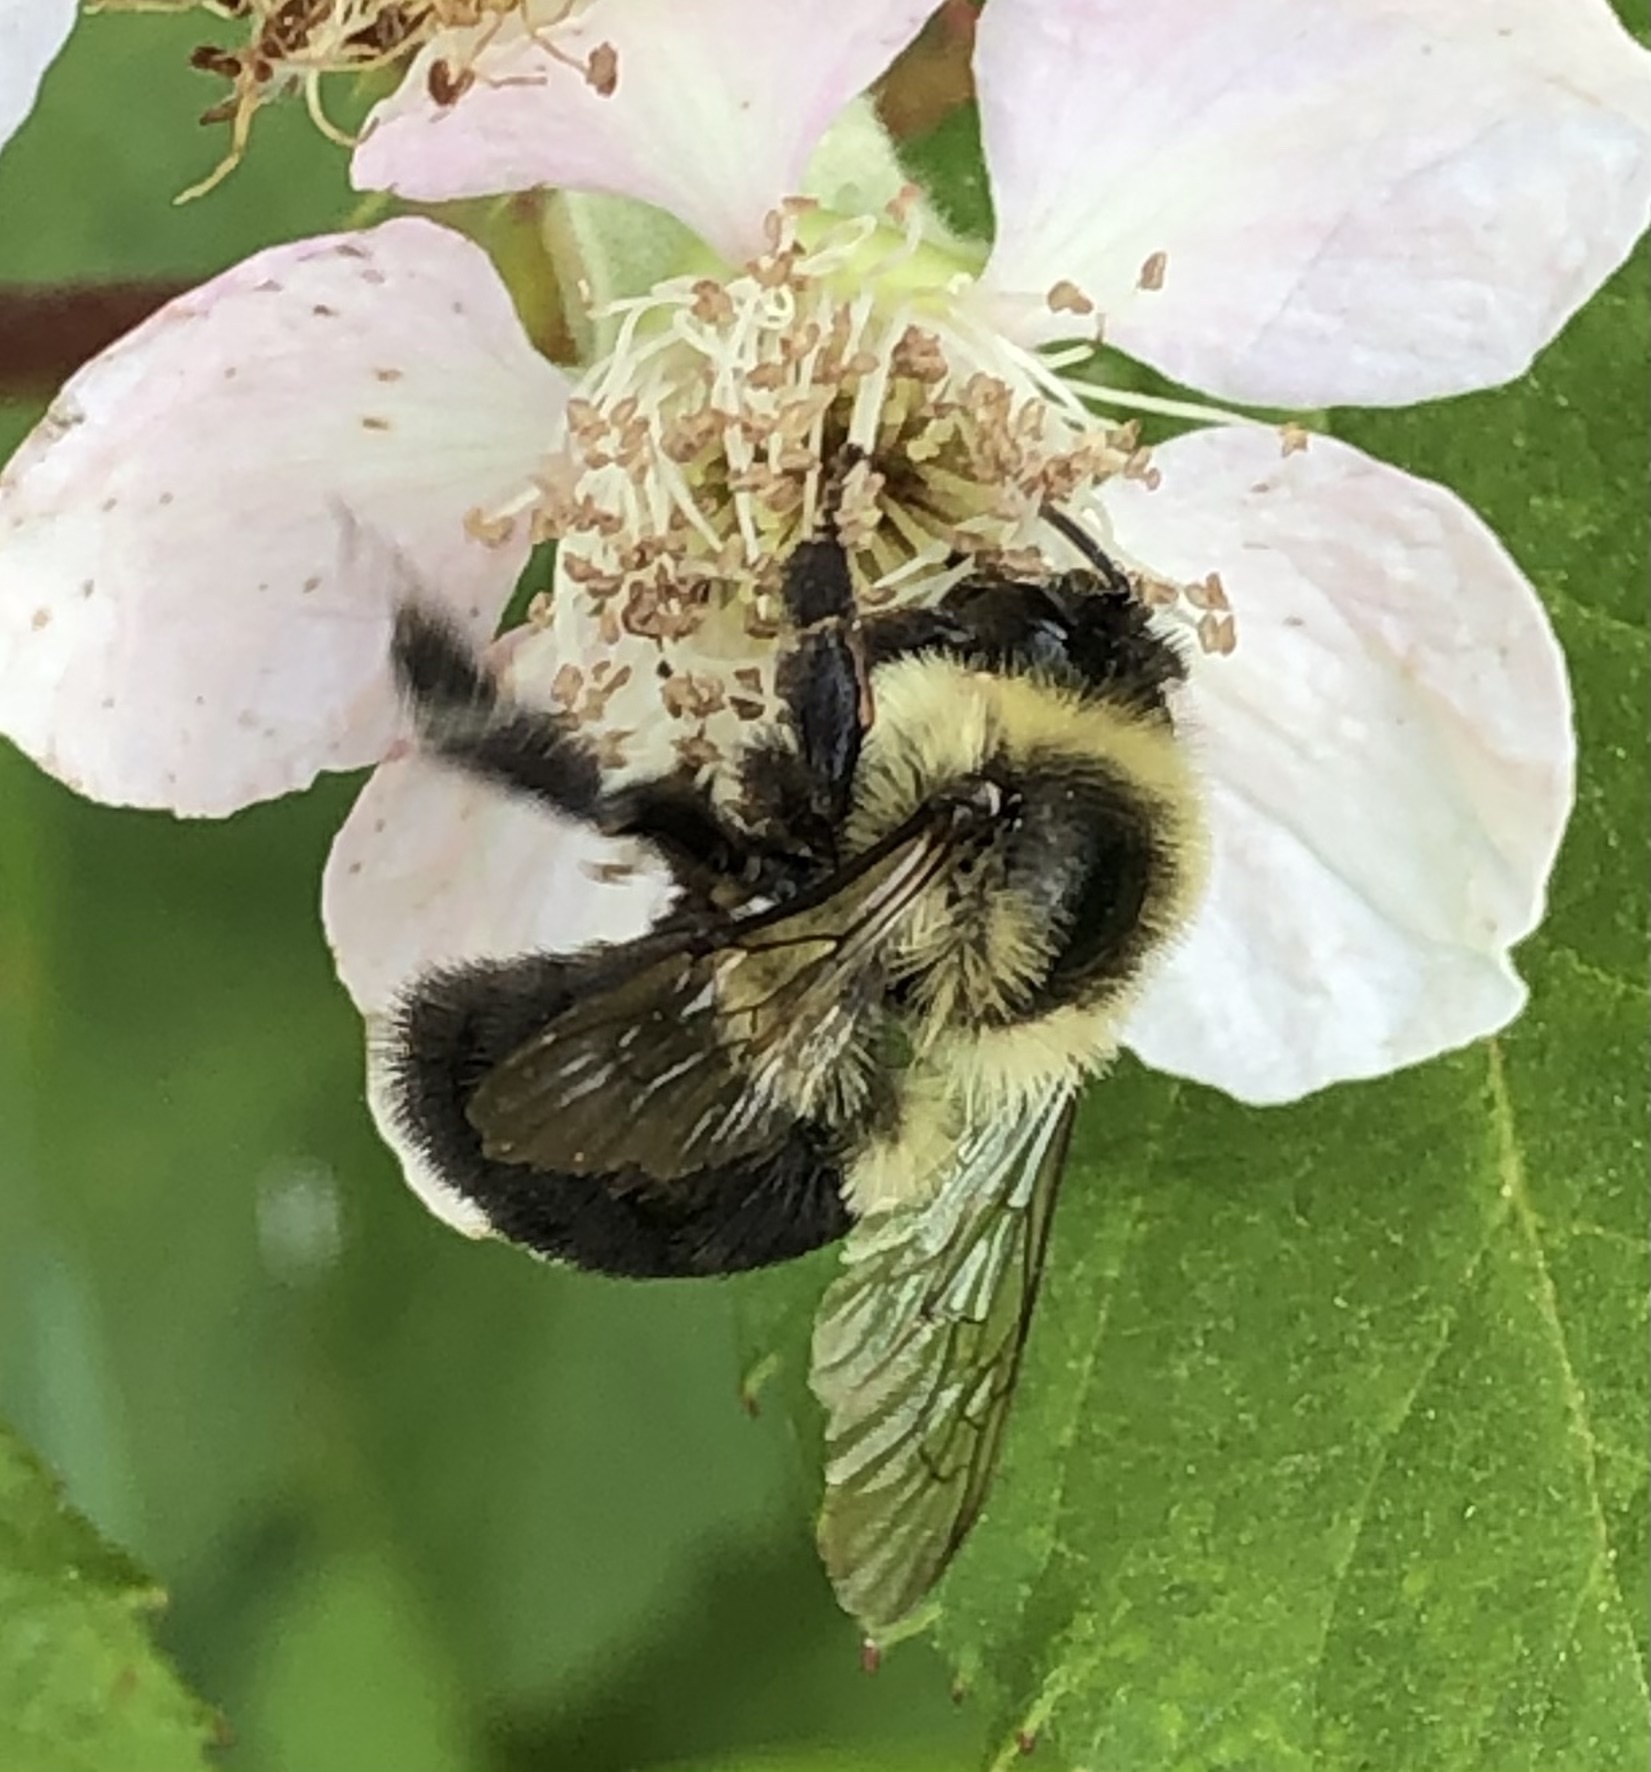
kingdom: Animalia
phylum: Arthropoda
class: Insecta
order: Hymenoptera
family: Apidae
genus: Bombus
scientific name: Bombus impatiens
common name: Common eastern bumble bee
